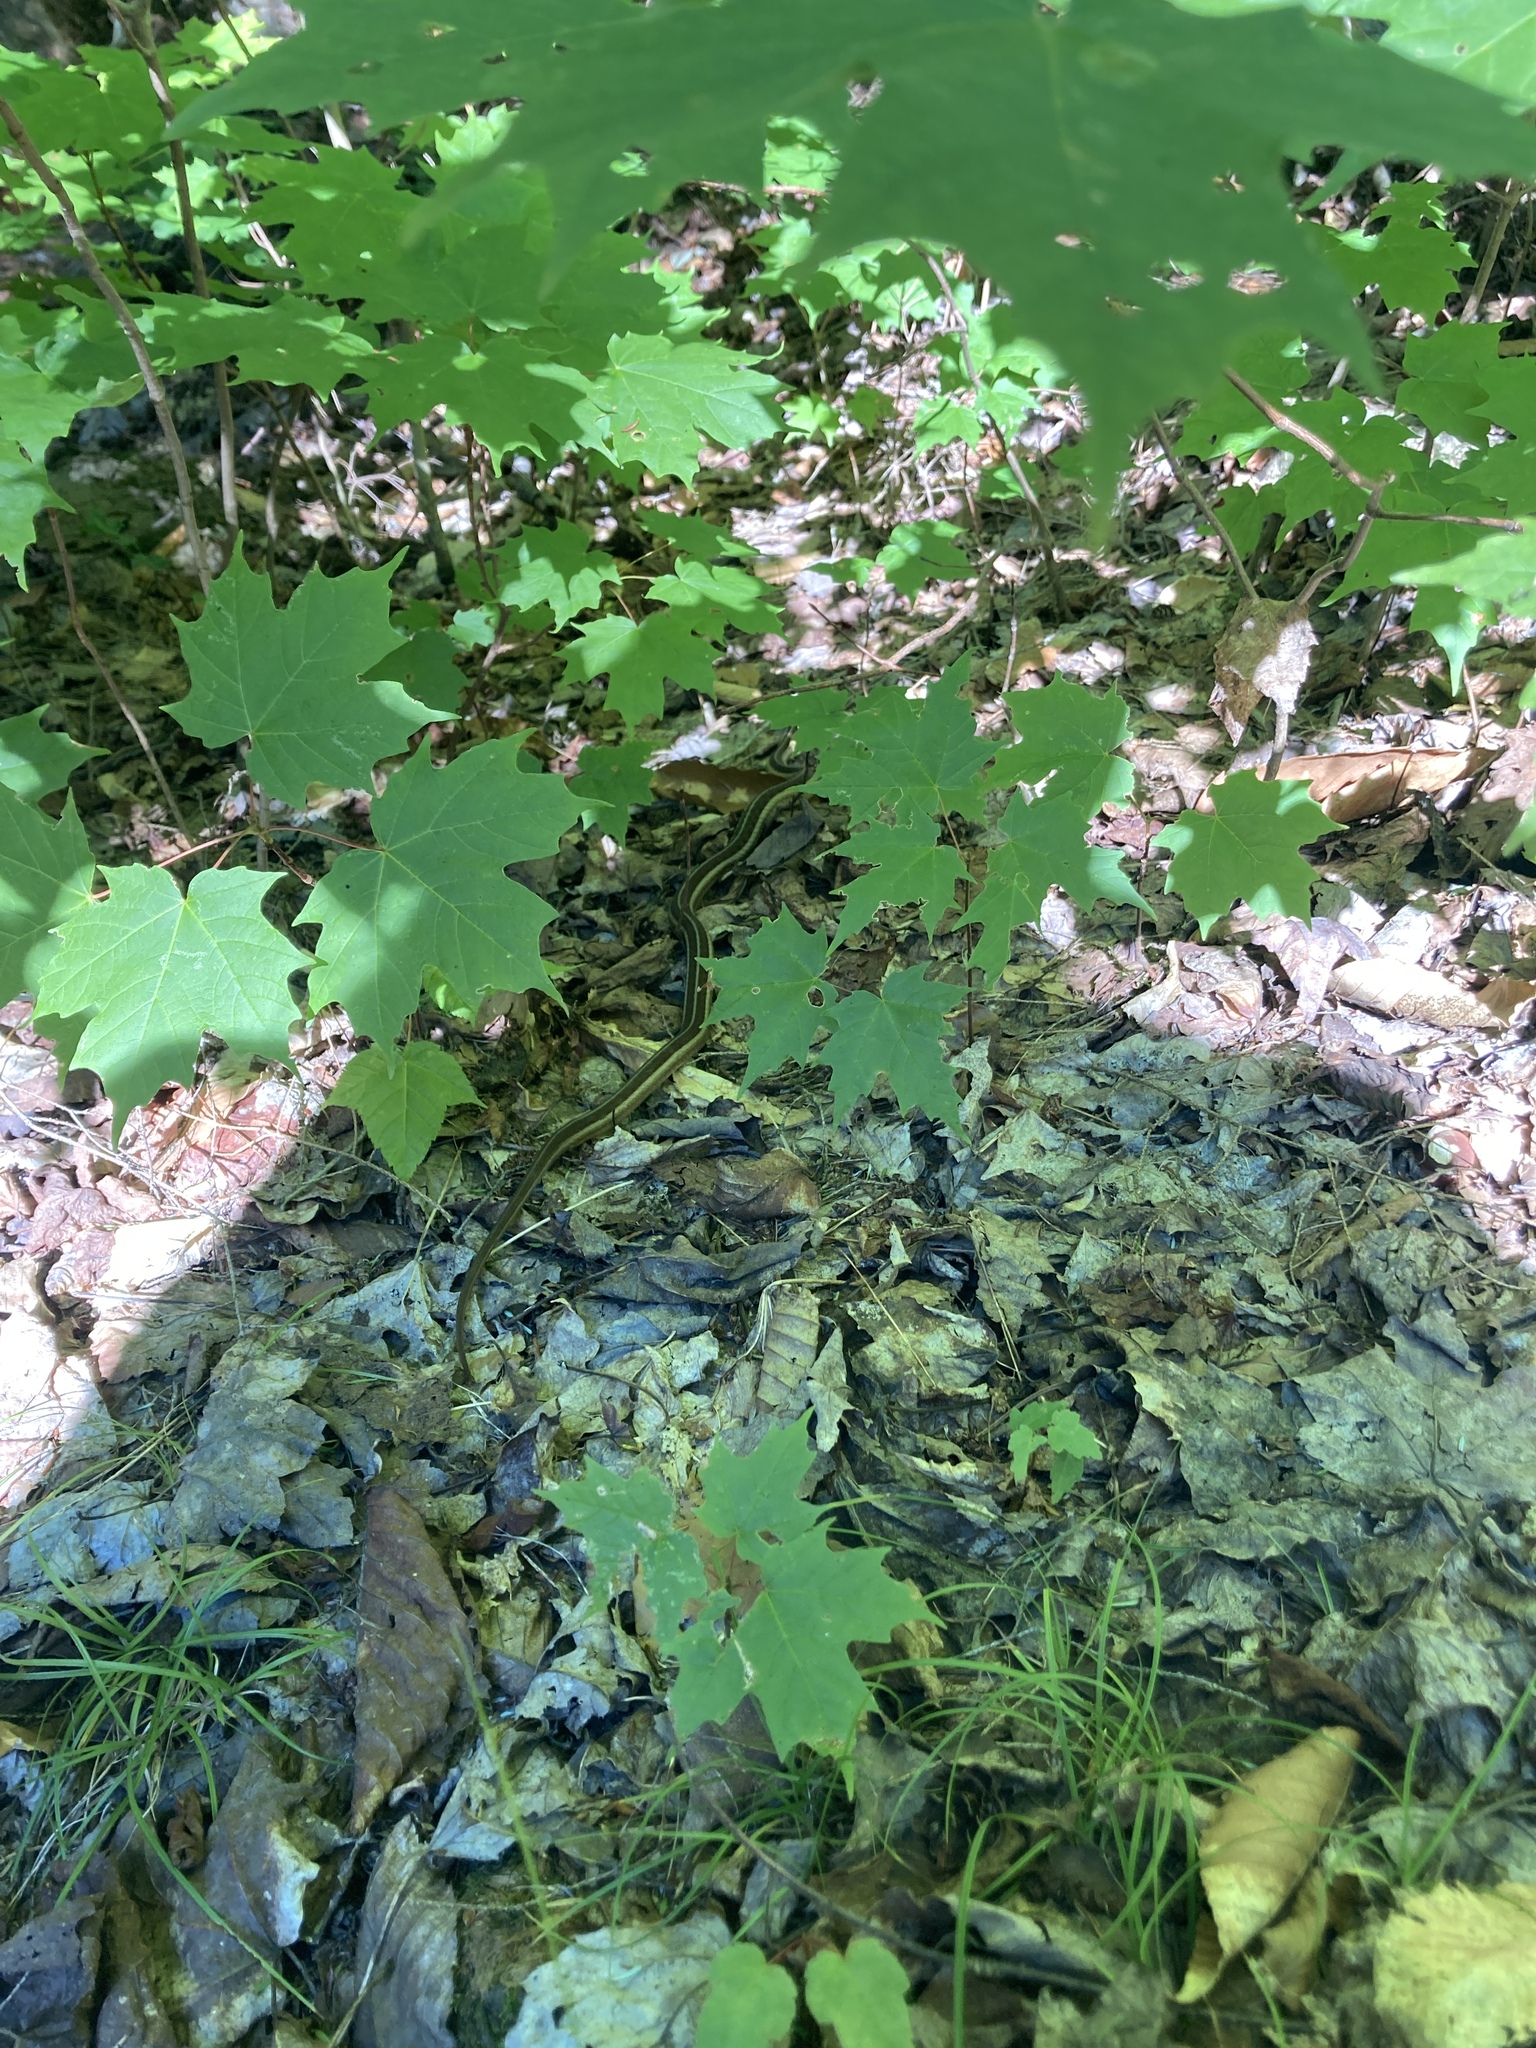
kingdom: Animalia
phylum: Chordata
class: Squamata
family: Colubridae
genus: Thamnophis
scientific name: Thamnophis sirtalis
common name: Common garter snake
